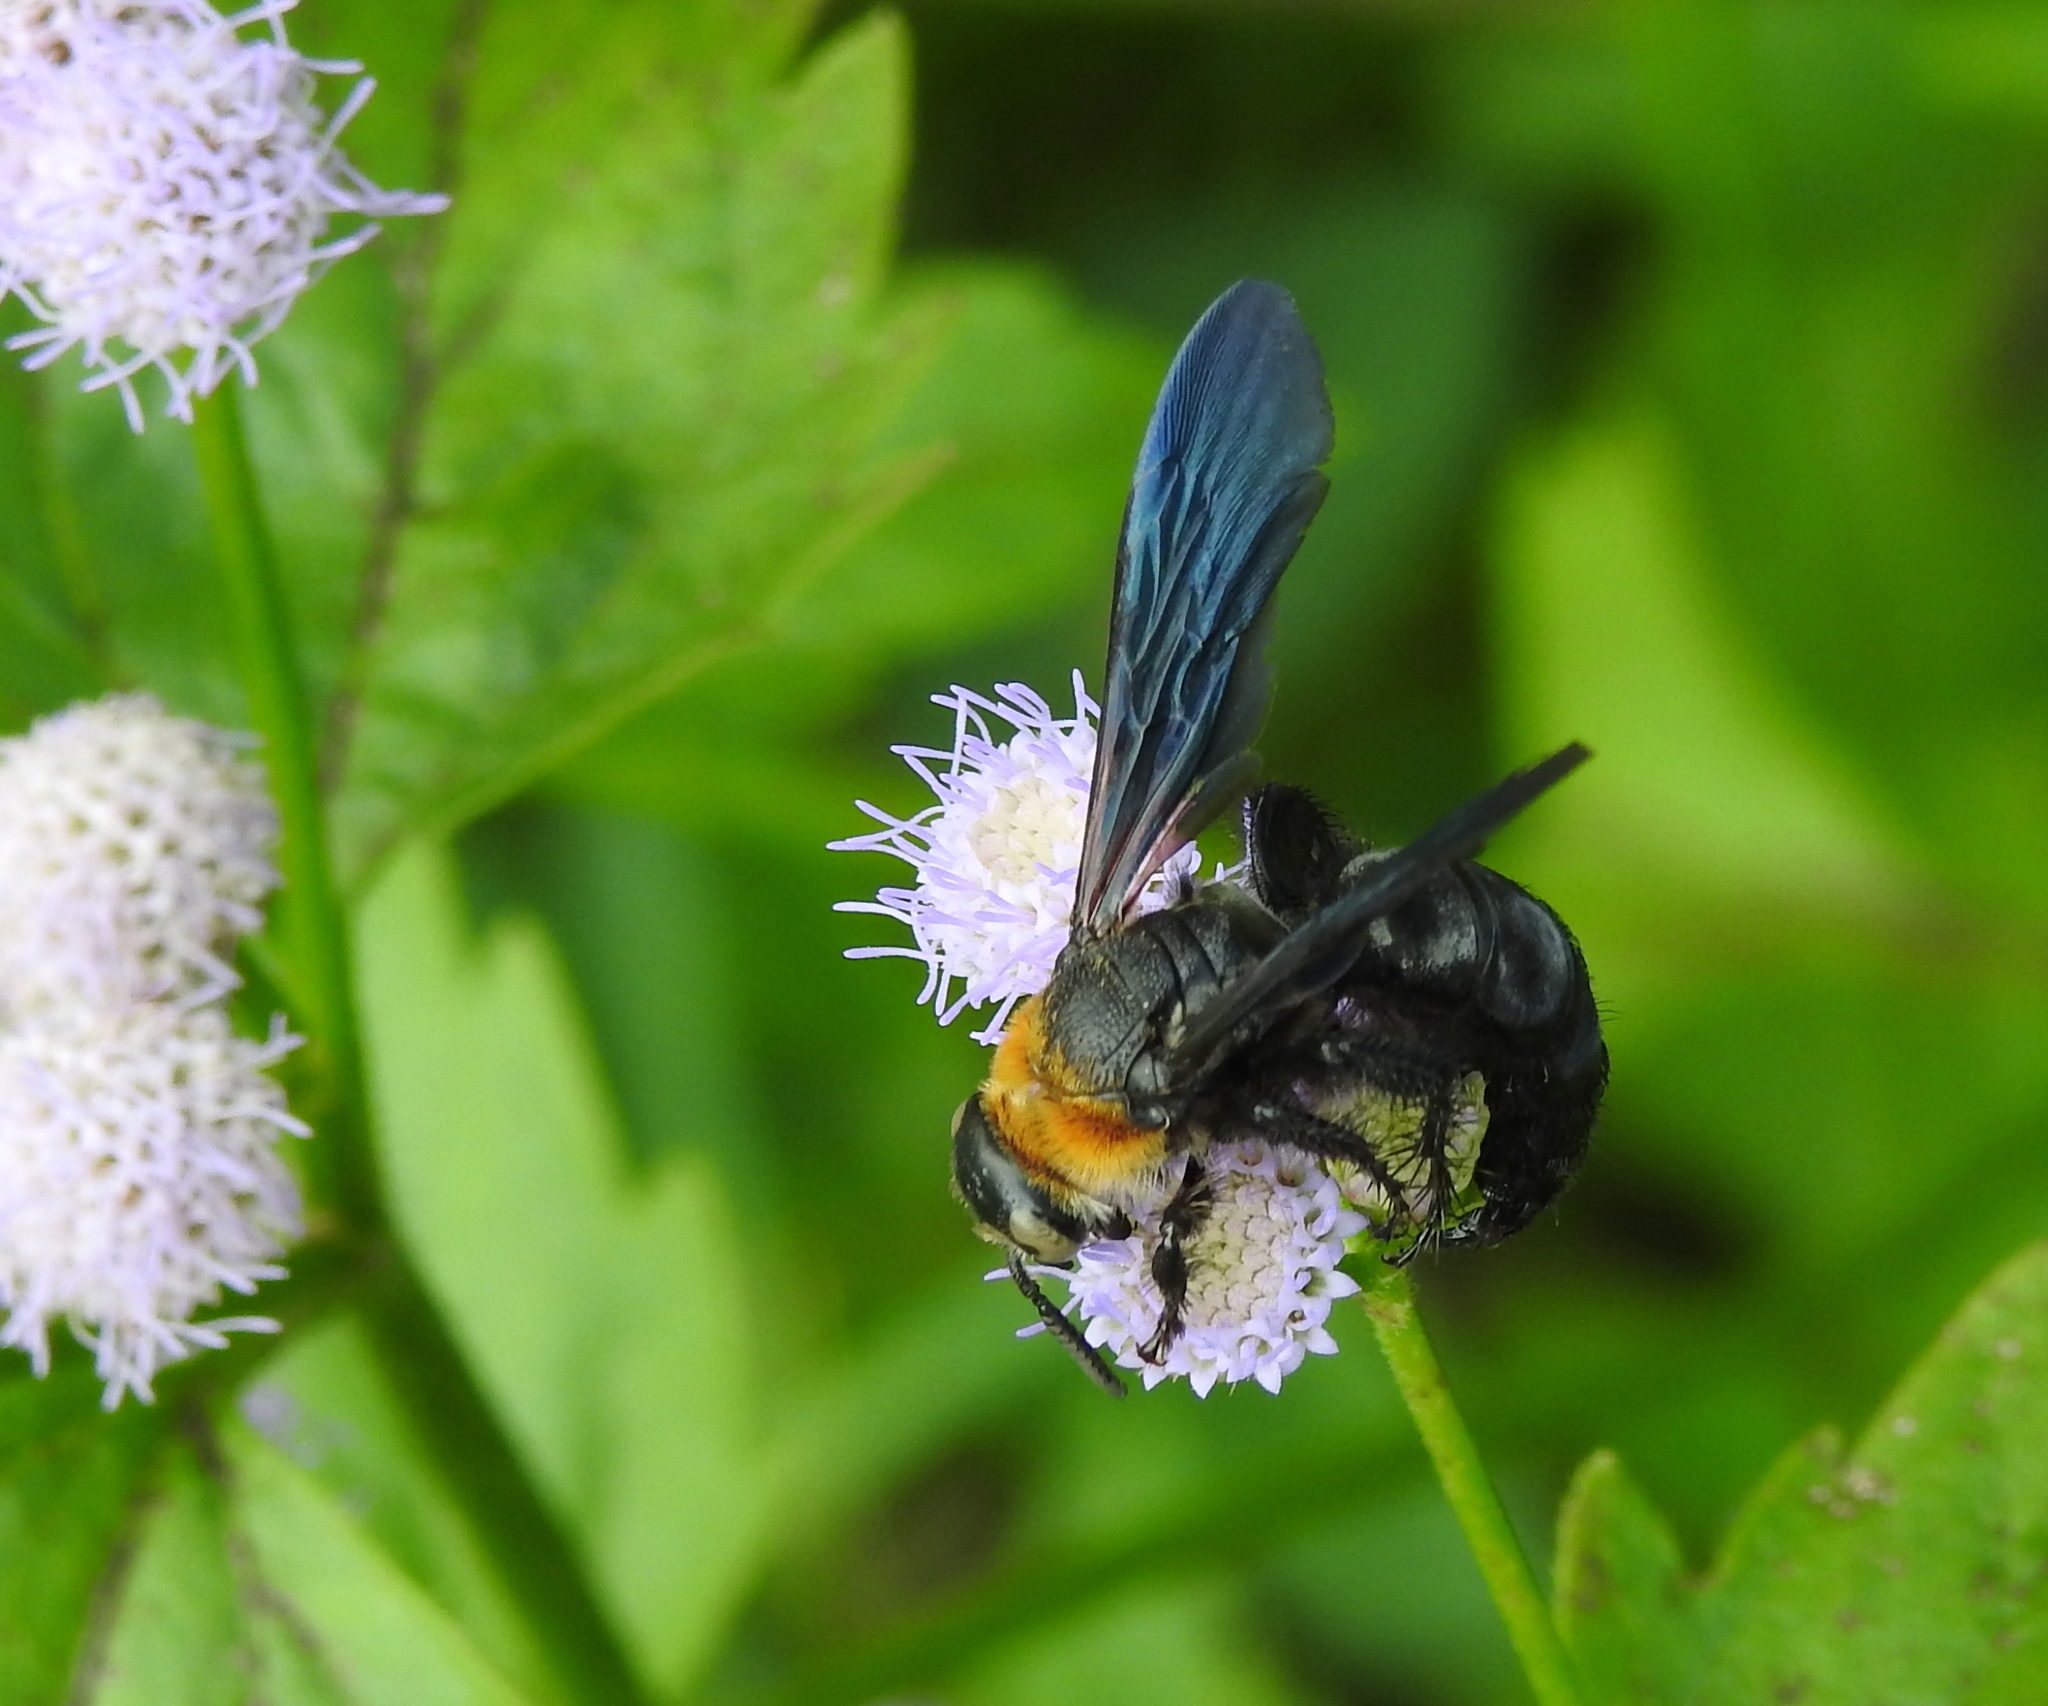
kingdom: Animalia
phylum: Arthropoda
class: Insecta
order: Hymenoptera
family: Scoliidae
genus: Campsomeriella
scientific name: Campsomeriella collaris
